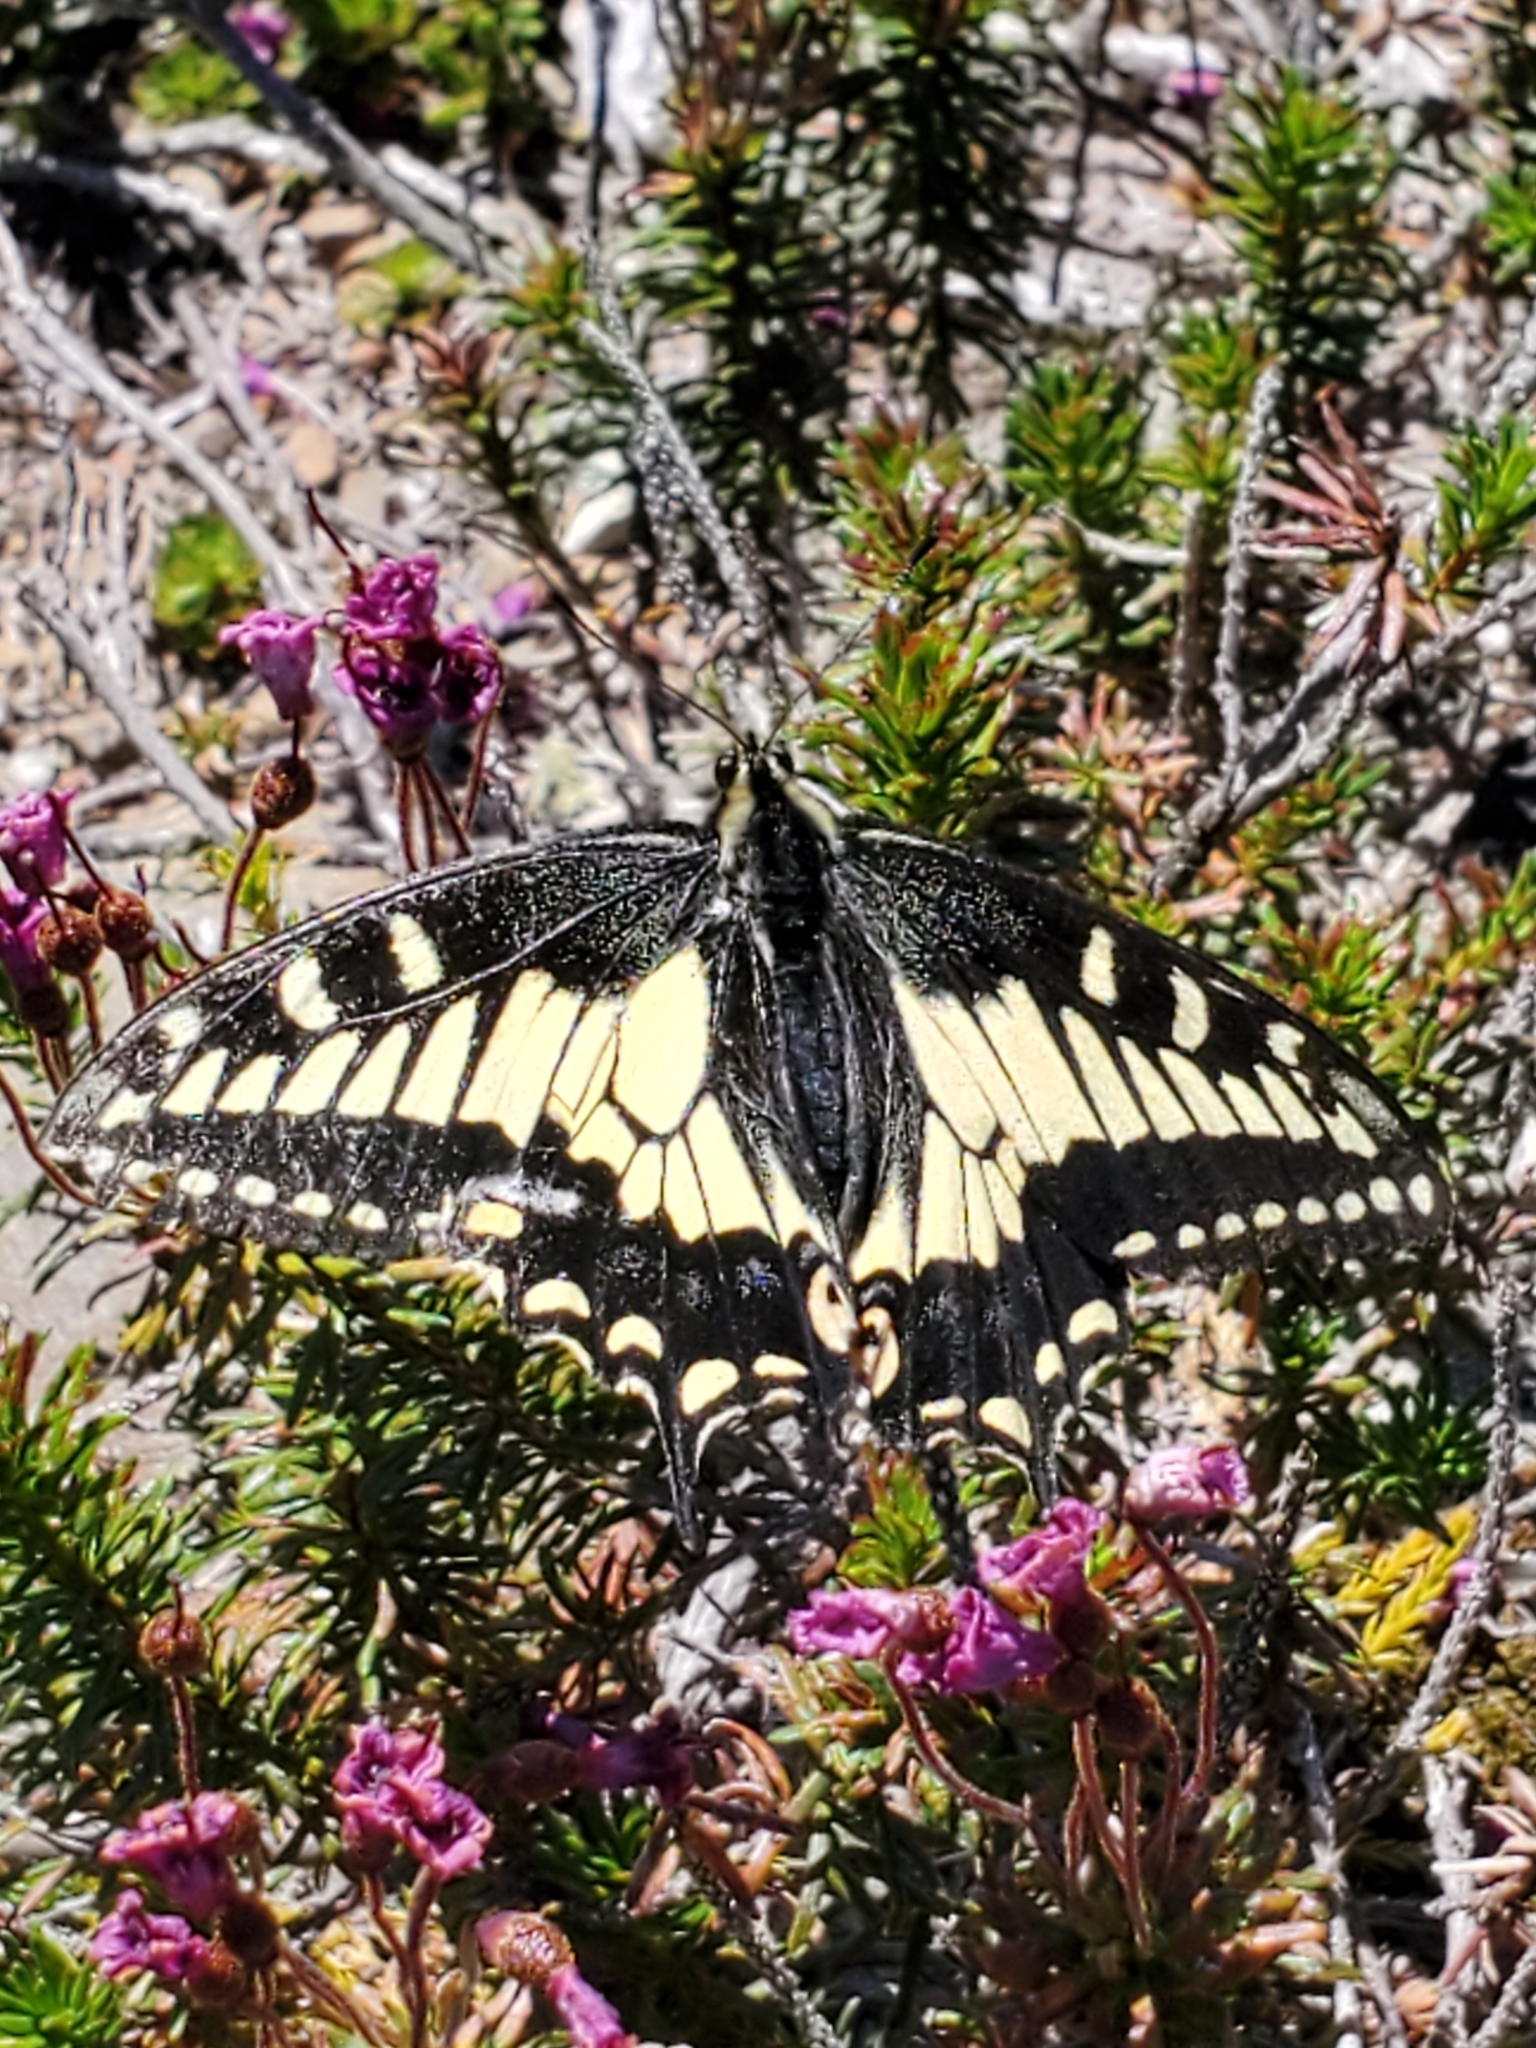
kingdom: Animalia
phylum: Arthropoda
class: Insecta
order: Lepidoptera
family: Papilionidae
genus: Papilio
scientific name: Papilio zelicaon
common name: Anise swallowtail
